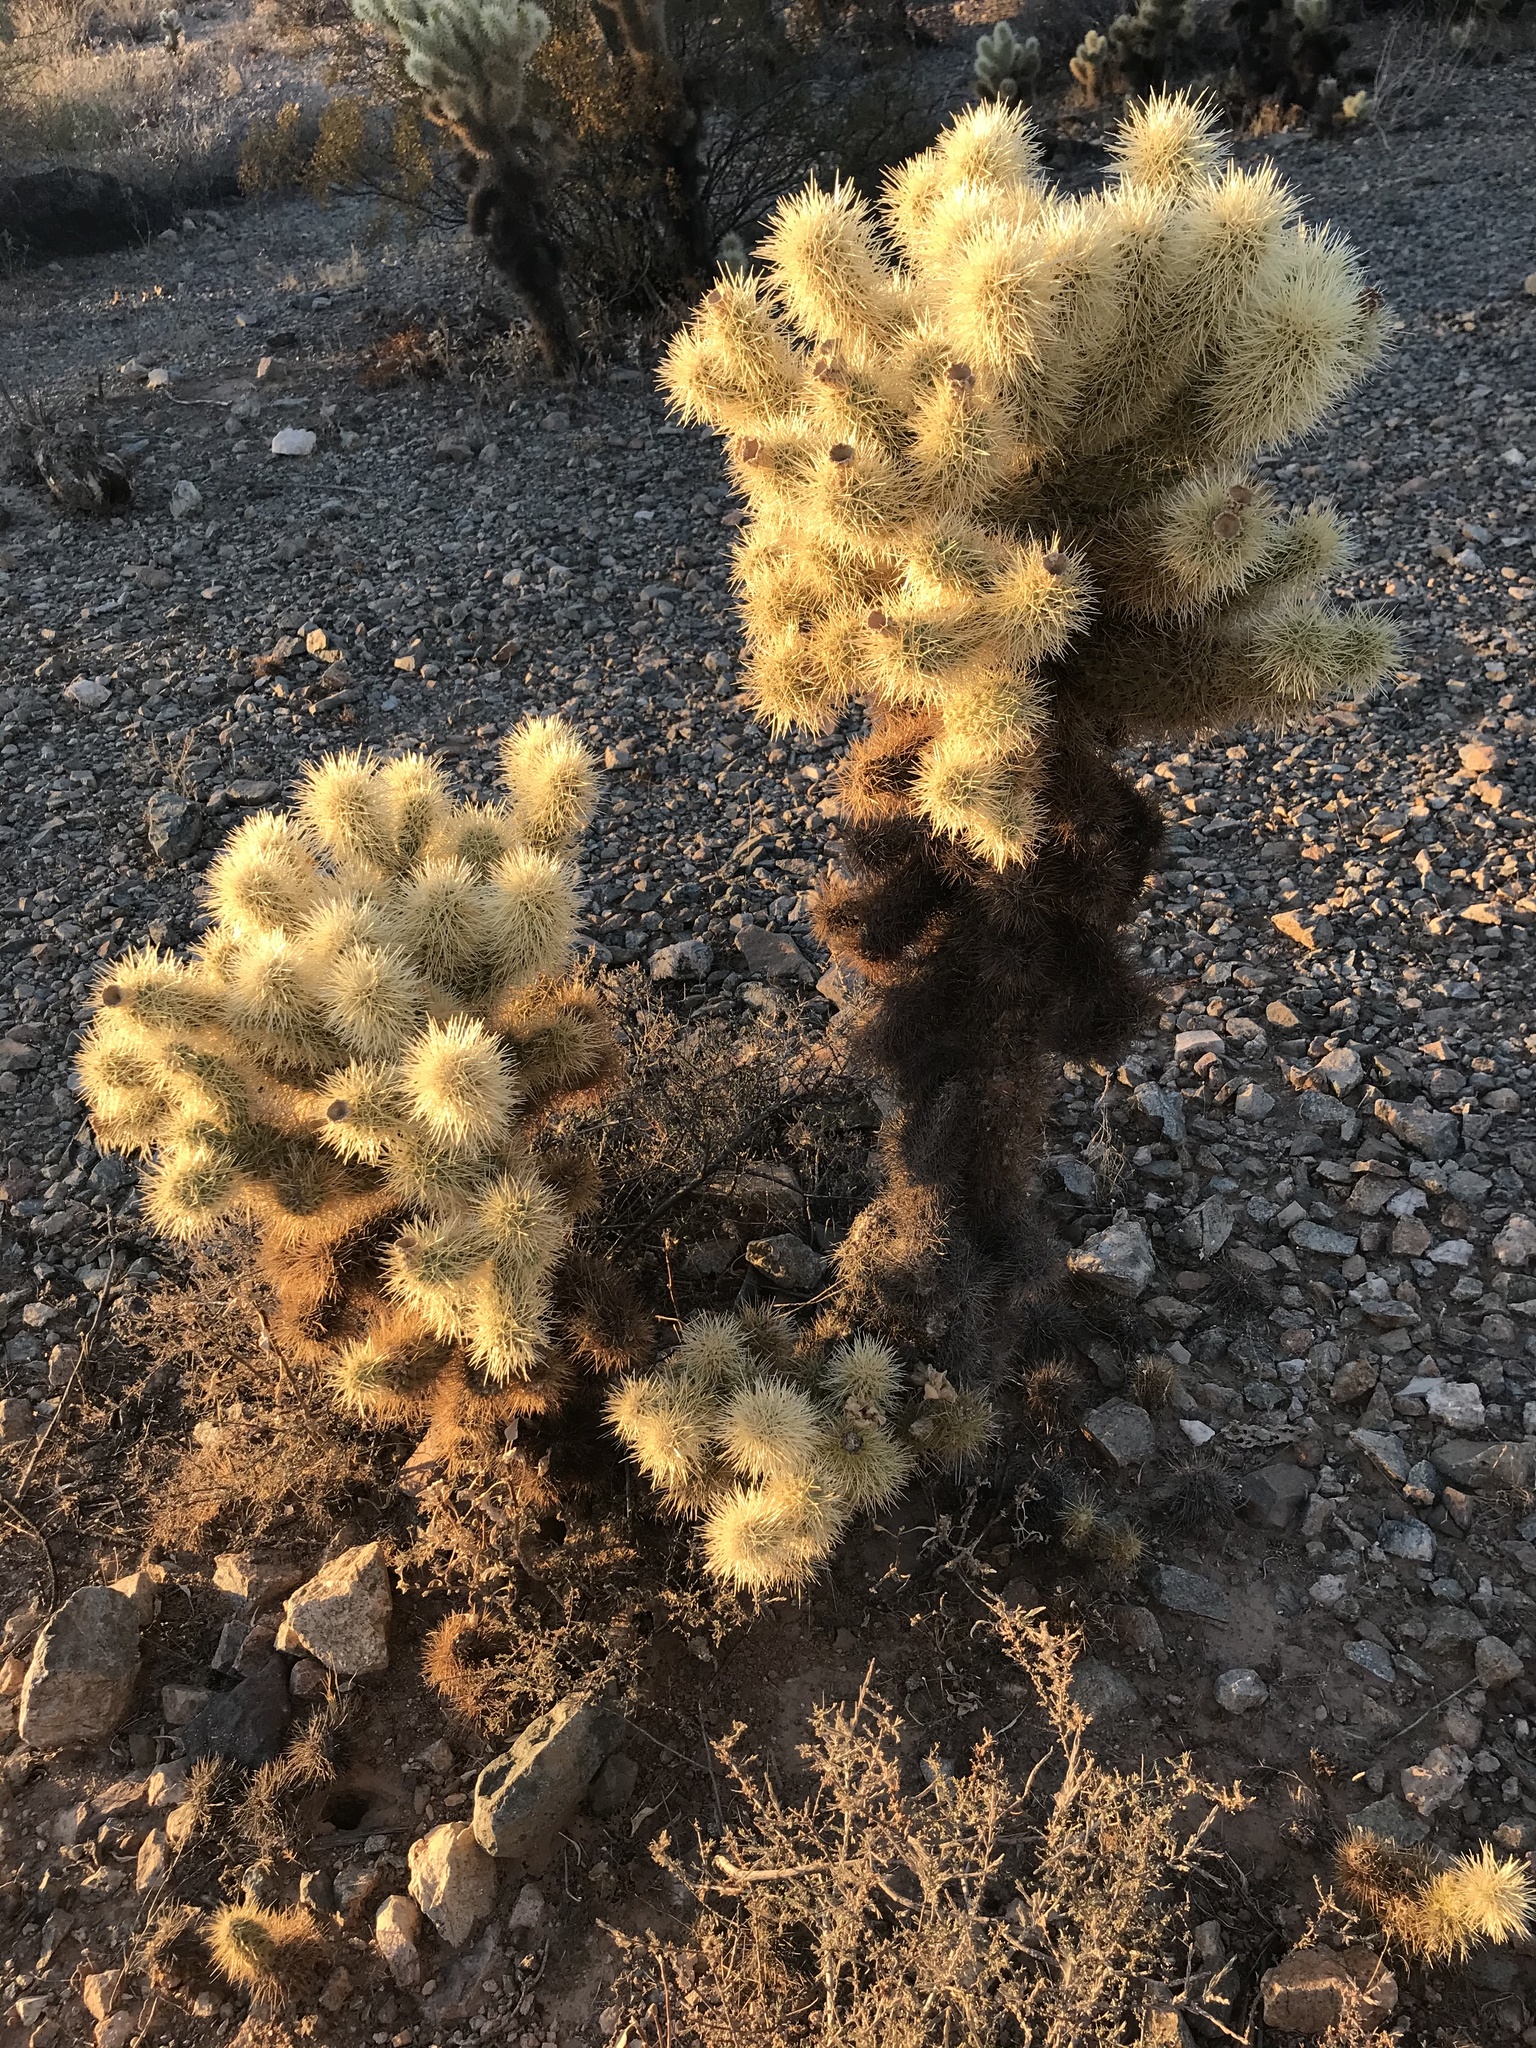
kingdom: Plantae
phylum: Tracheophyta
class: Magnoliopsida
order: Caryophyllales
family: Cactaceae
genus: Cylindropuntia
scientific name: Cylindropuntia fosbergii
